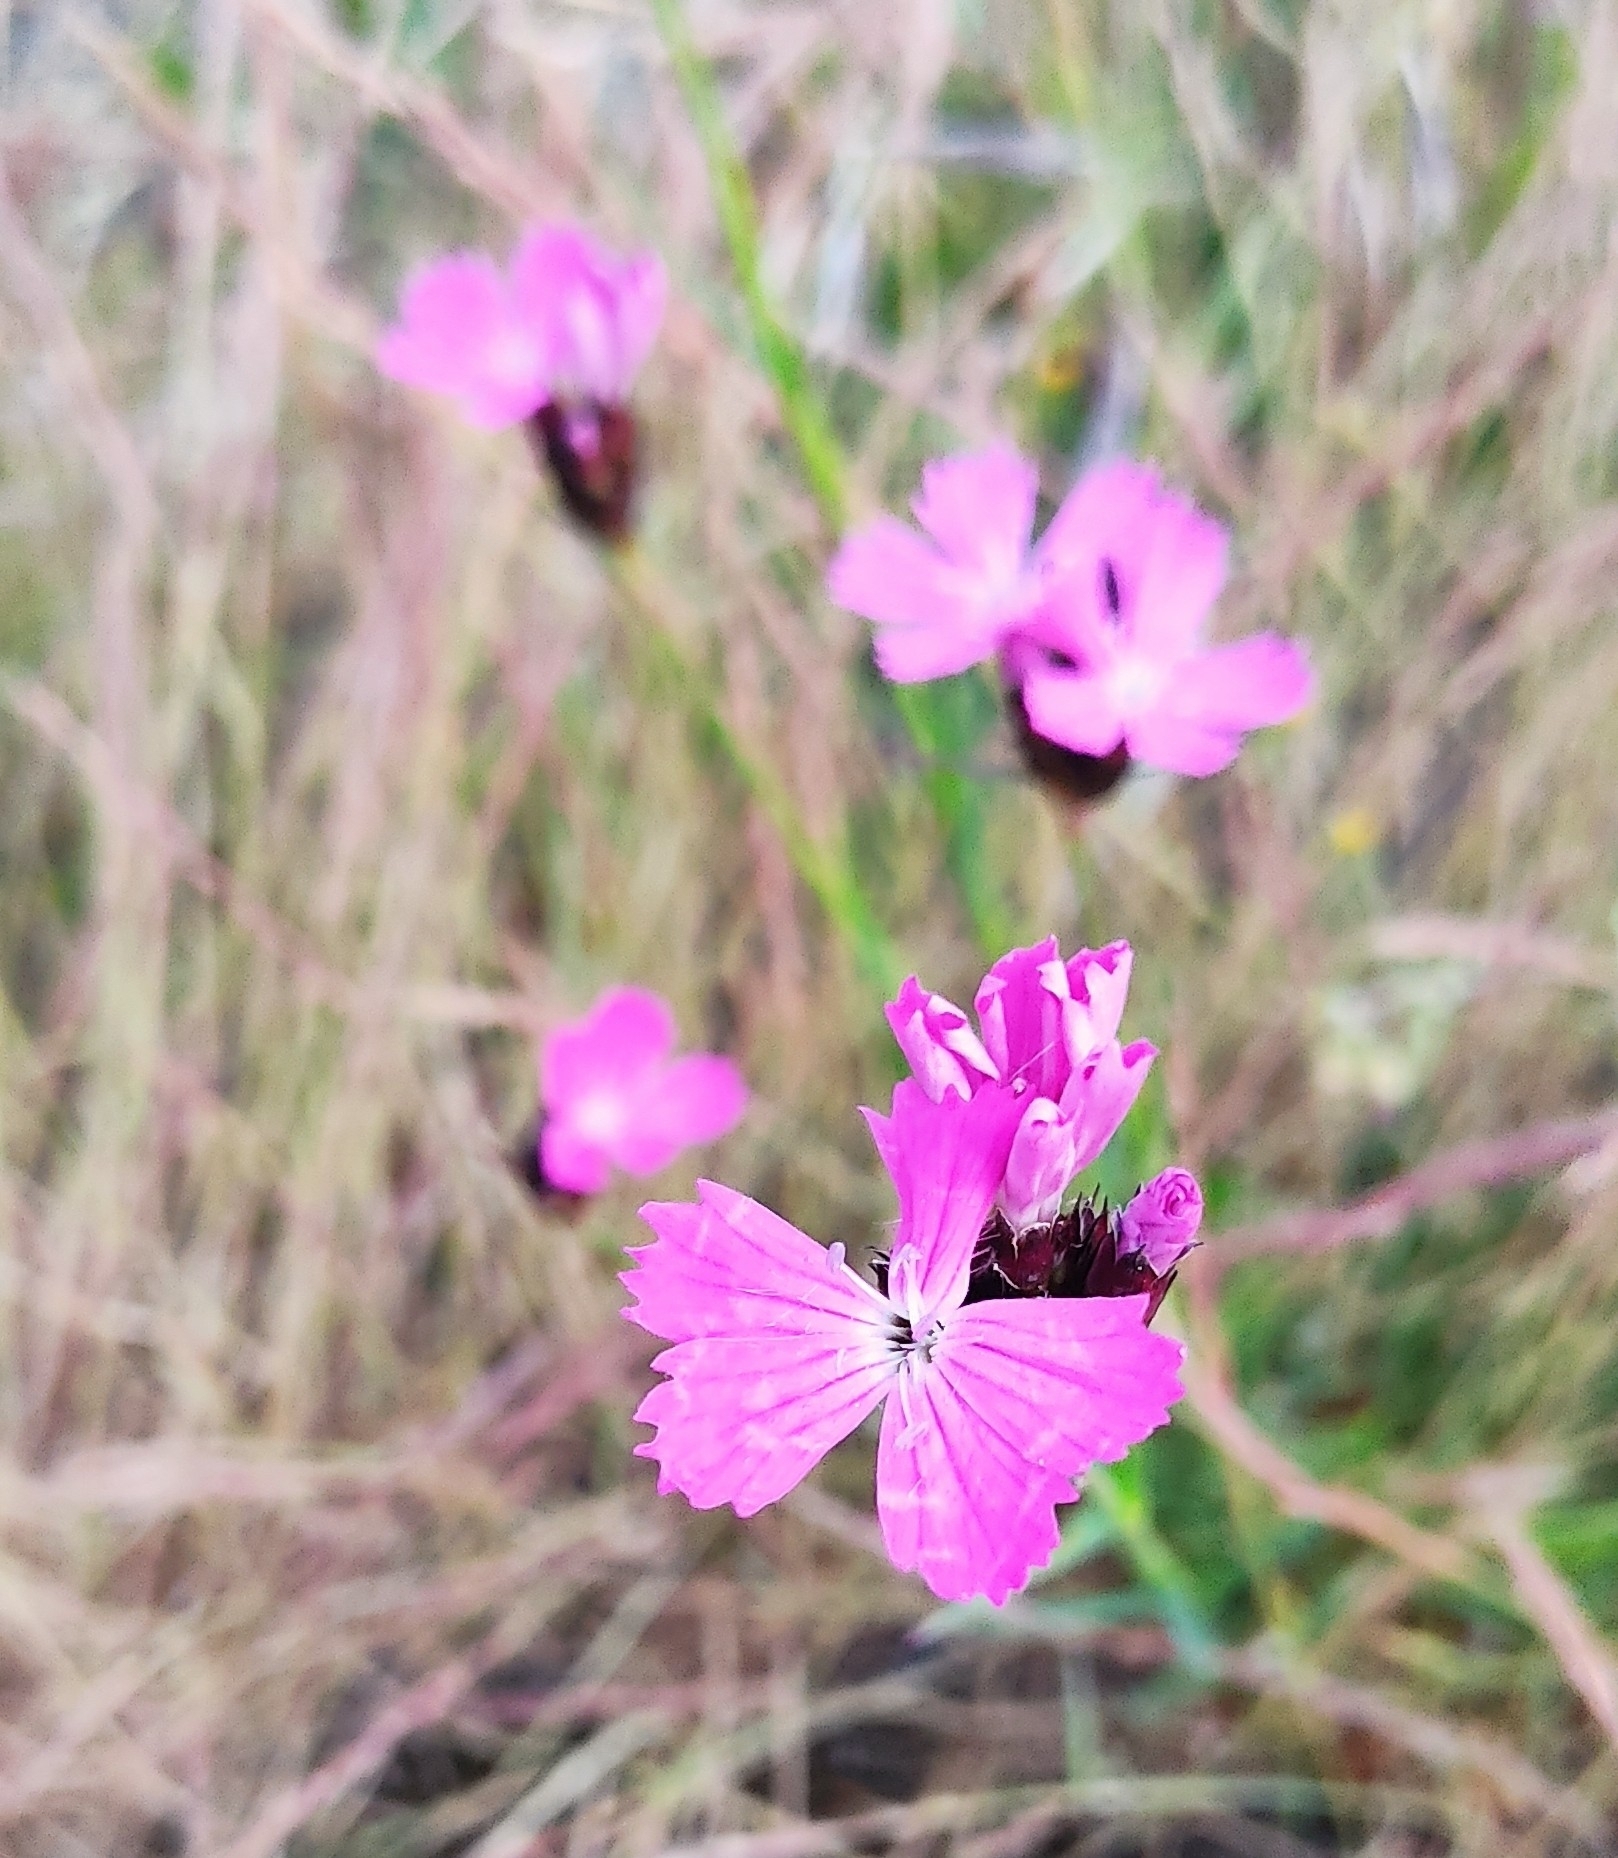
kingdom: Plantae
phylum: Tracheophyta
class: Magnoliopsida
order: Caryophyllales
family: Caryophyllaceae
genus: Dianthus
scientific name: Dianthus carthusianorum
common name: Carthusian pink
